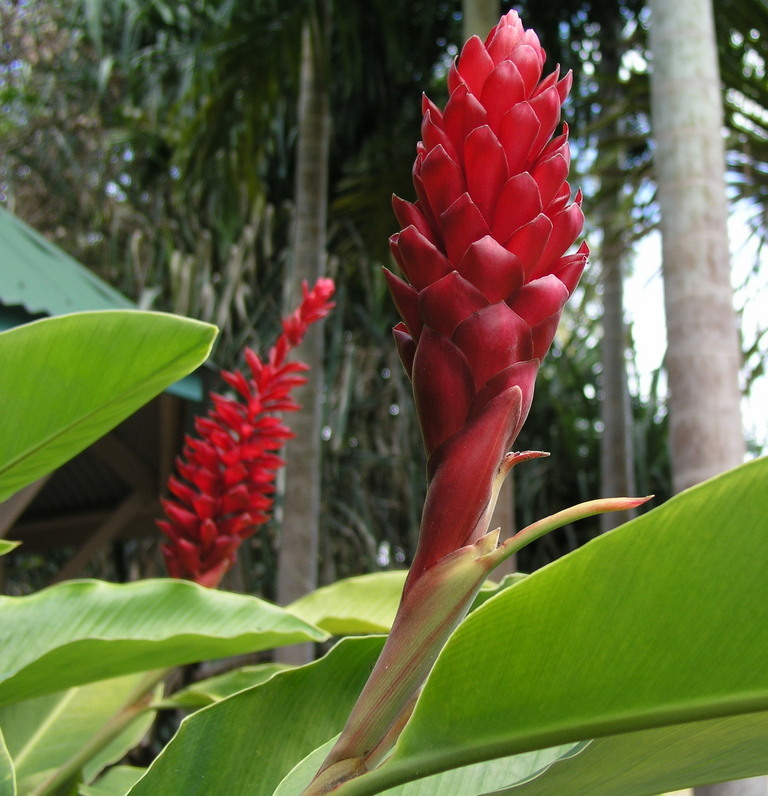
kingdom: Plantae
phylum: Tracheophyta
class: Liliopsida
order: Zingiberales
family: Zingiberaceae
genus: Alpinia
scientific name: Alpinia purpurata
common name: Red ginger
